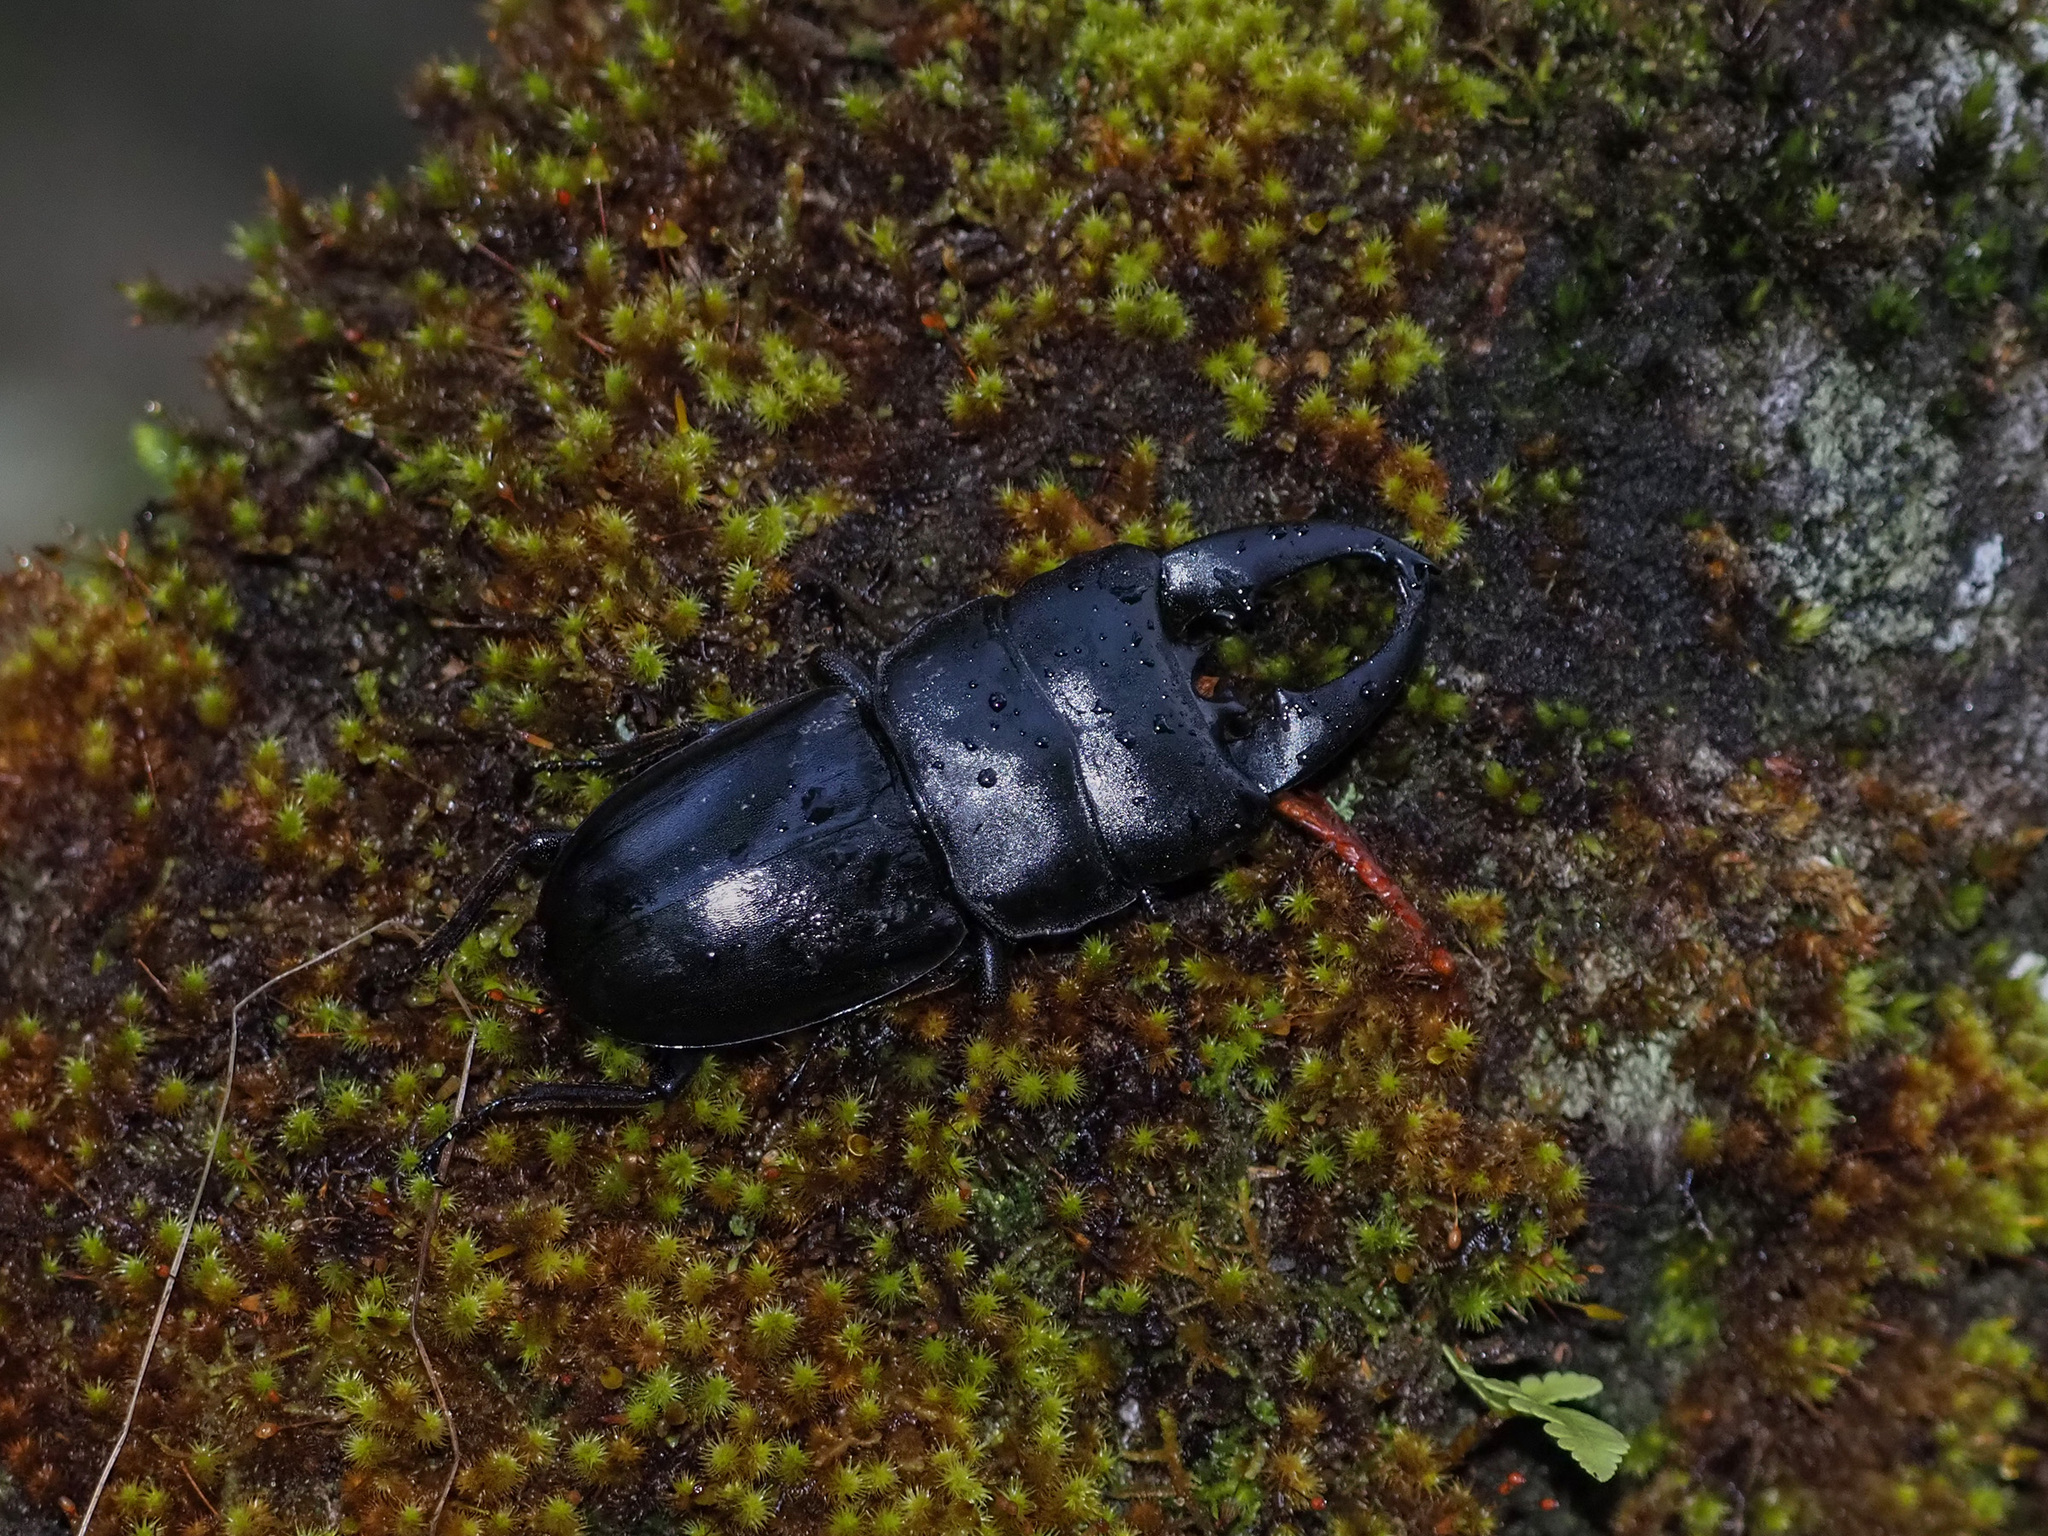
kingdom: Animalia
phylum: Arthropoda
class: Insecta
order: Coleoptera
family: Lucanidae
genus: Serrognathus
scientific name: Serrognathus thoracicus
